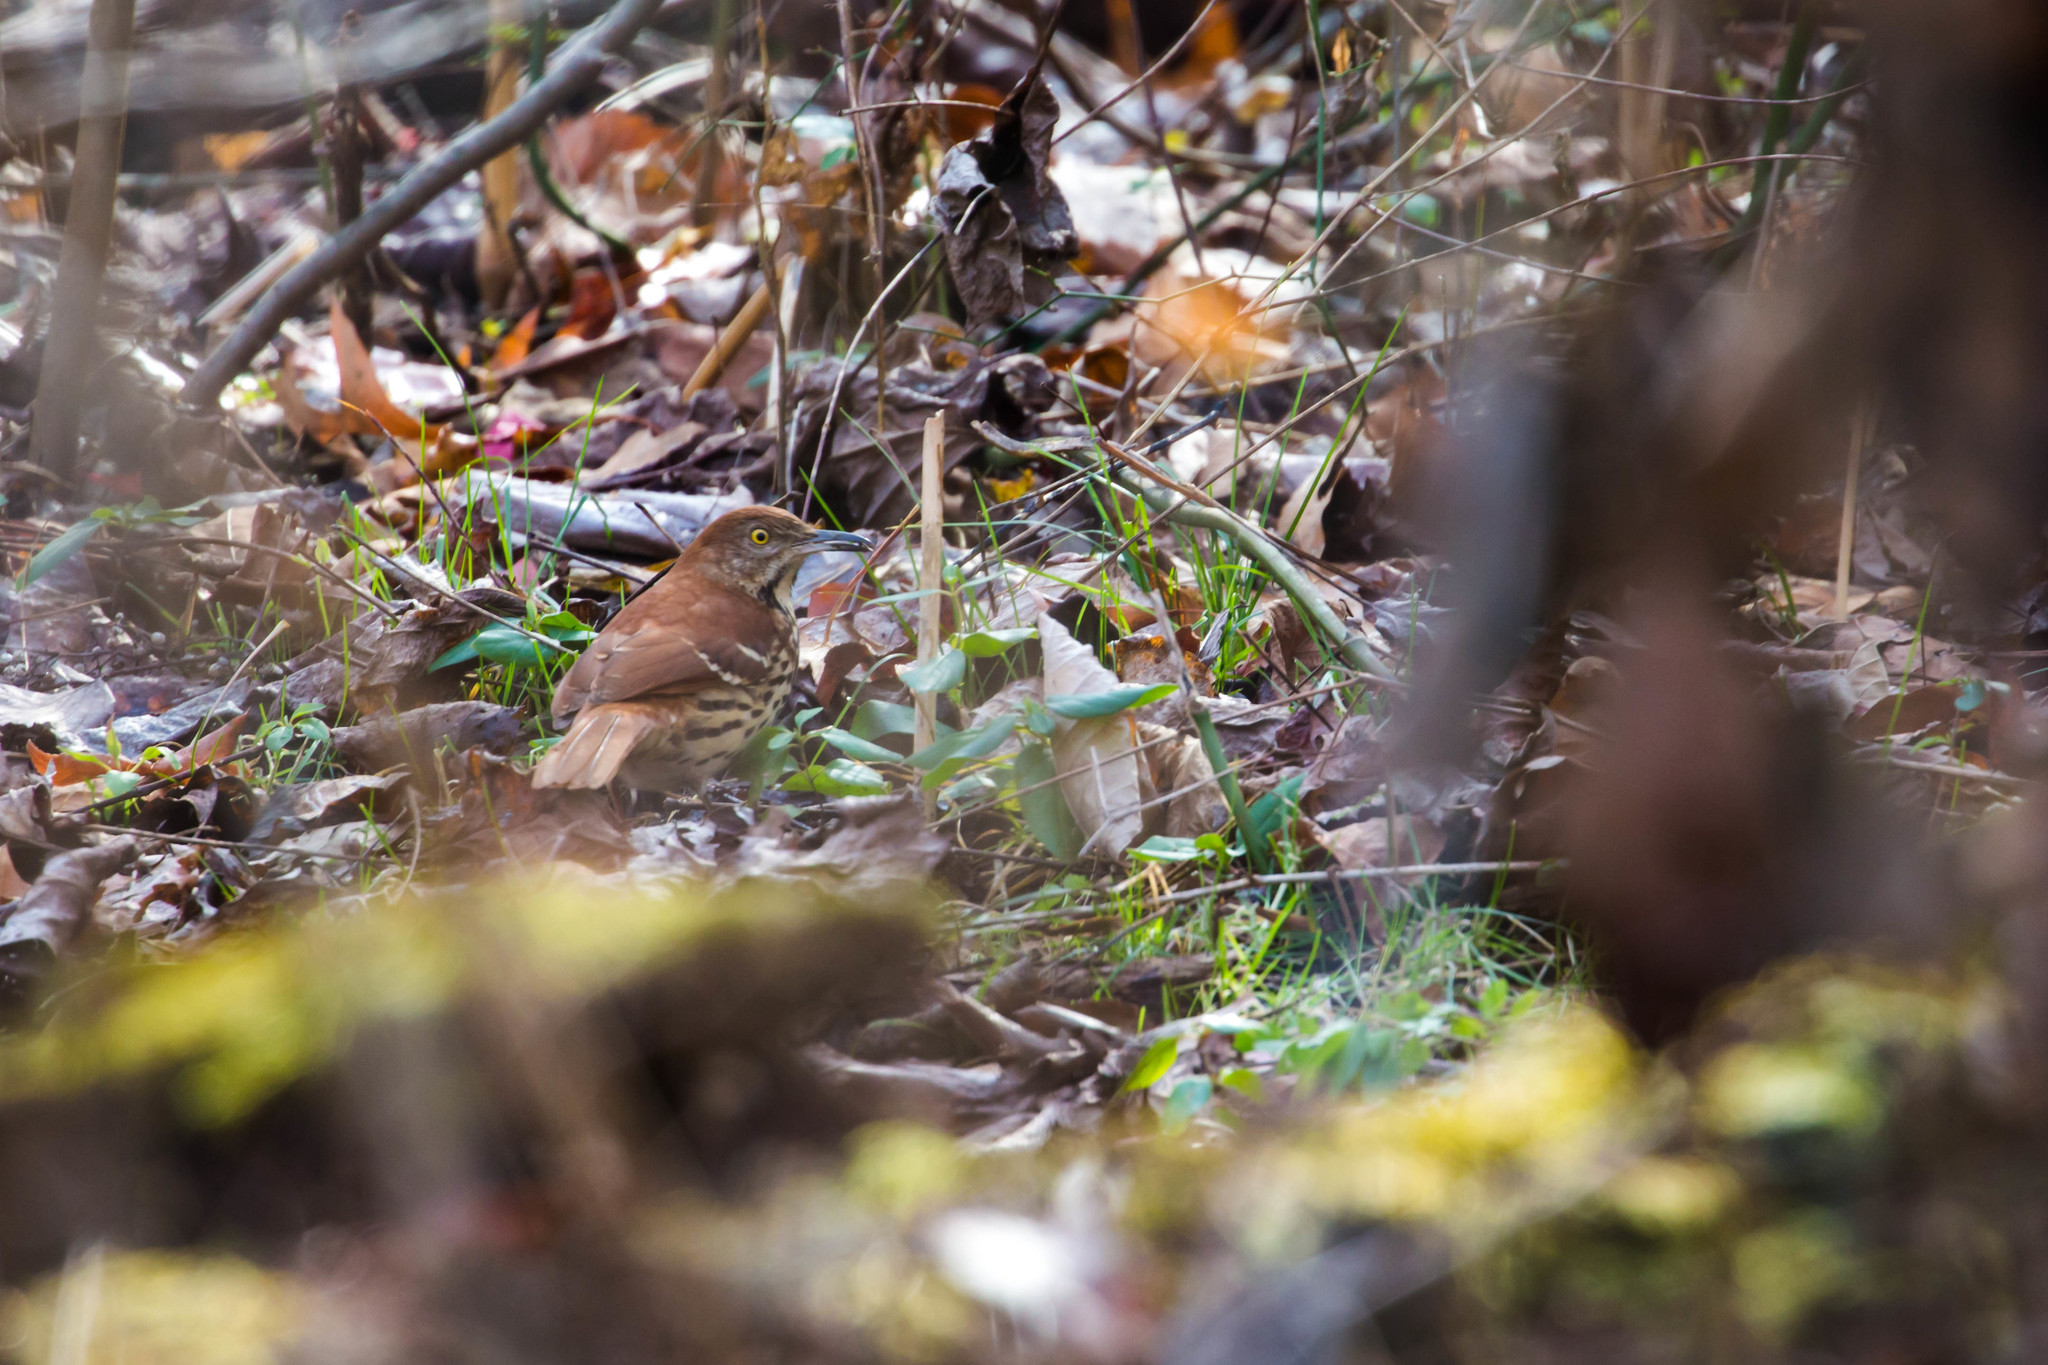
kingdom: Animalia
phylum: Chordata
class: Aves
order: Passeriformes
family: Mimidae
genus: Toxostoma
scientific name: Toxostoma rufum
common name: Brown thrasher
